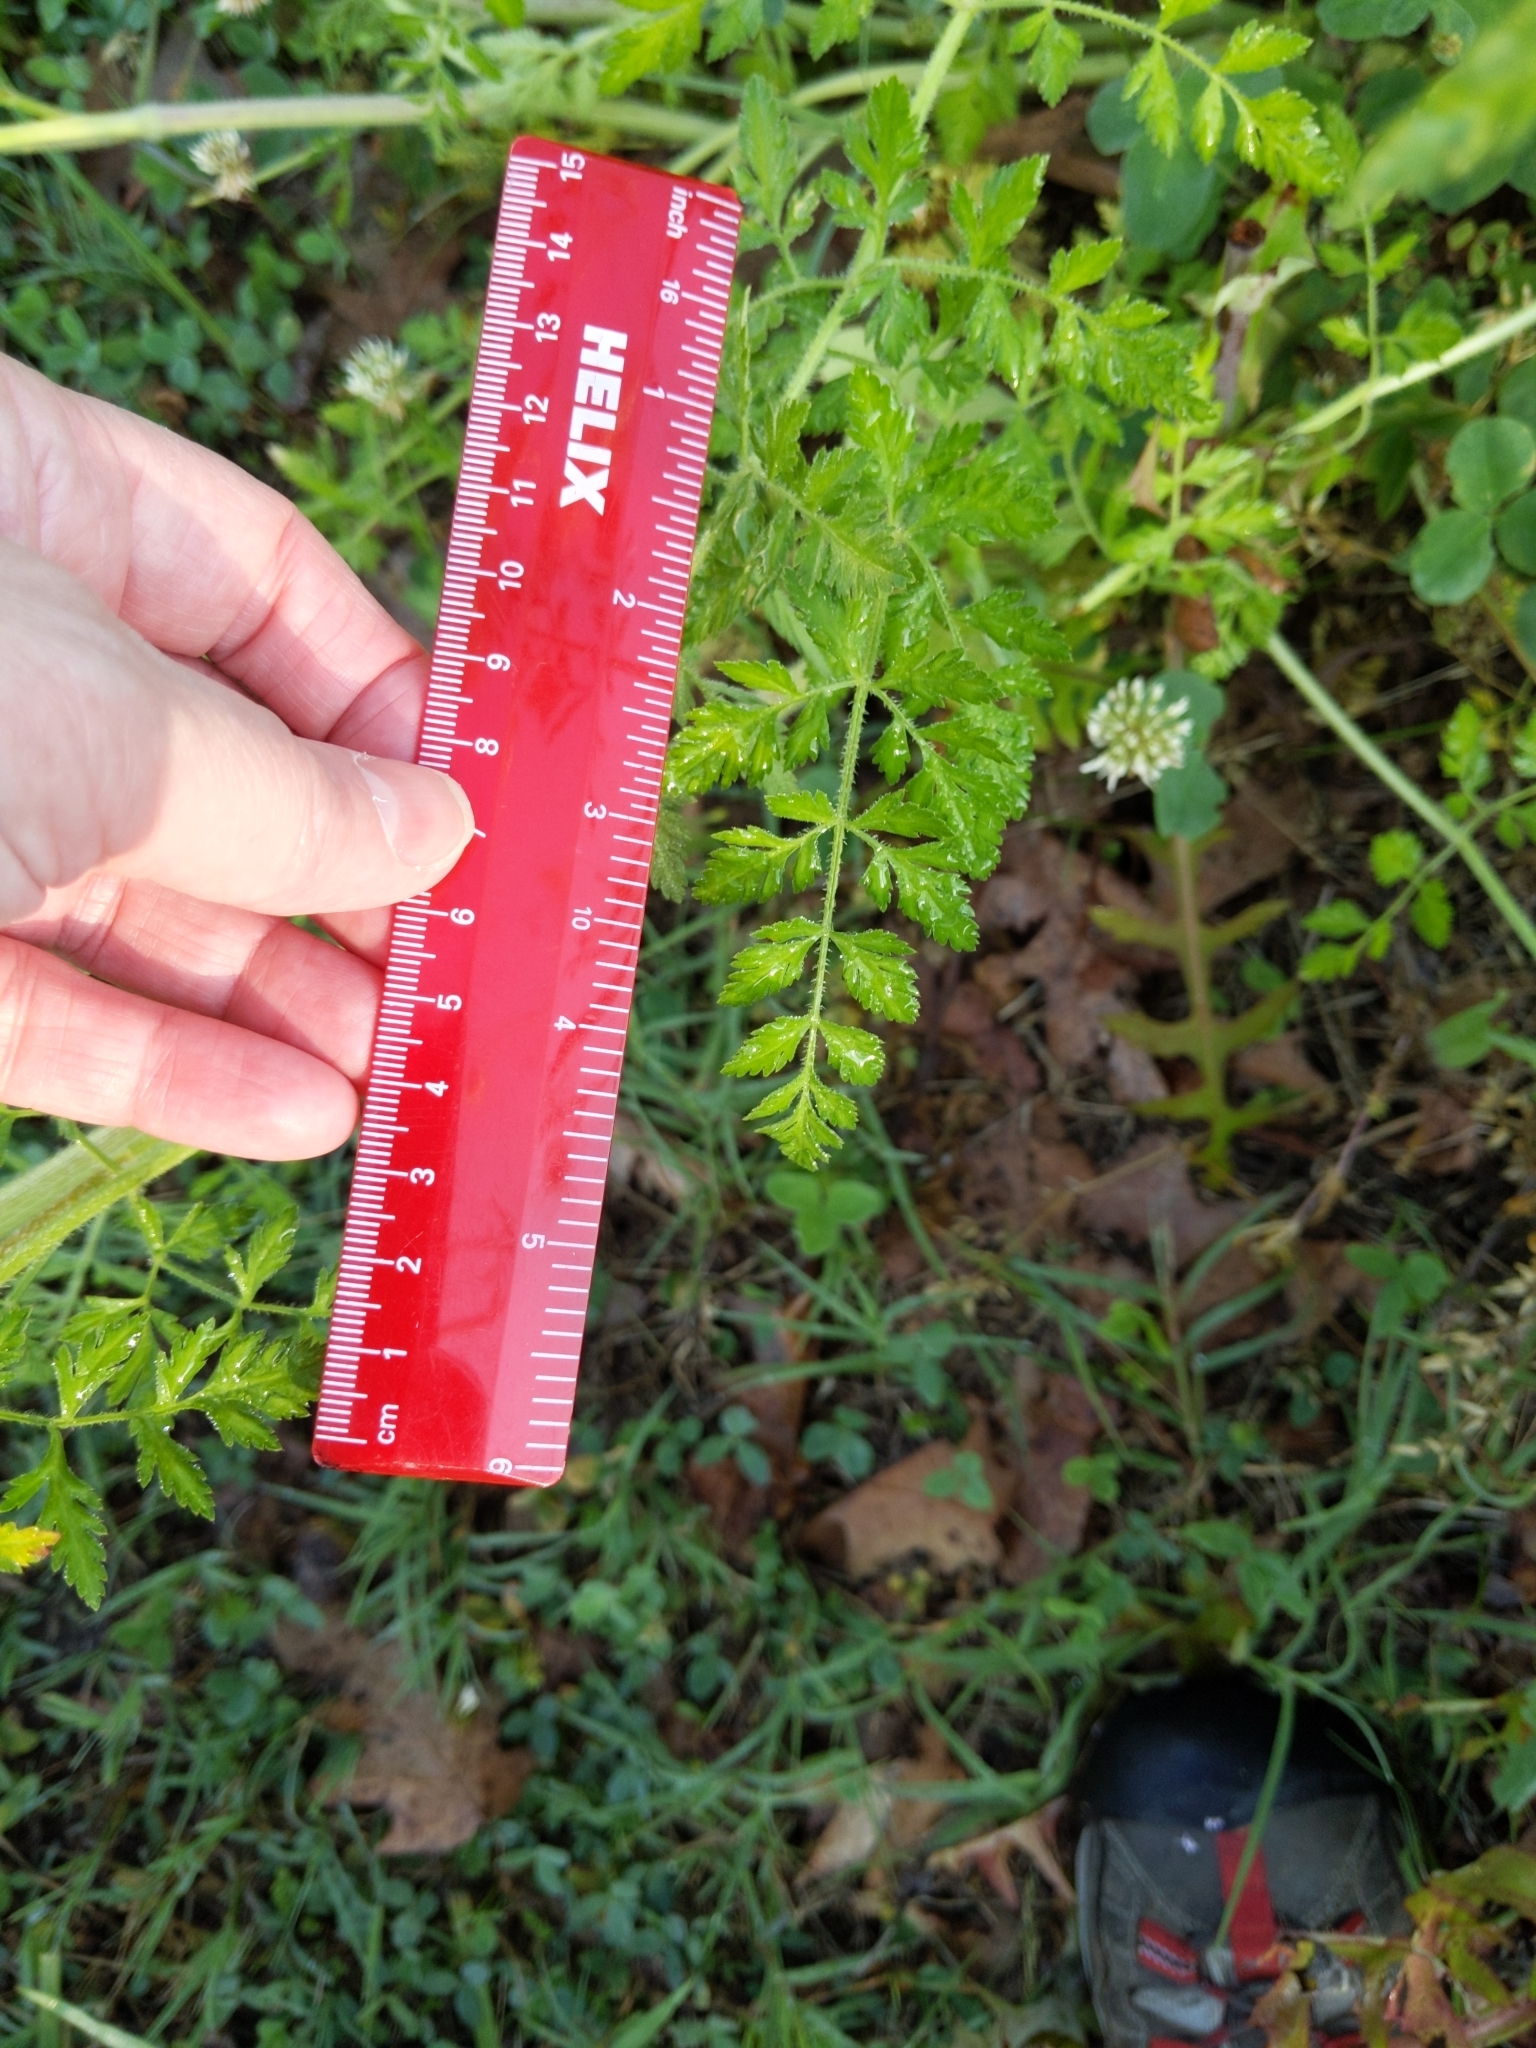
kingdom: Plantae
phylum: Tracheophyta
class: Magnoliopsida
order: Apiales
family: Apiaceae
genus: Daucus
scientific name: Daucus carota
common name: Wild carrot
